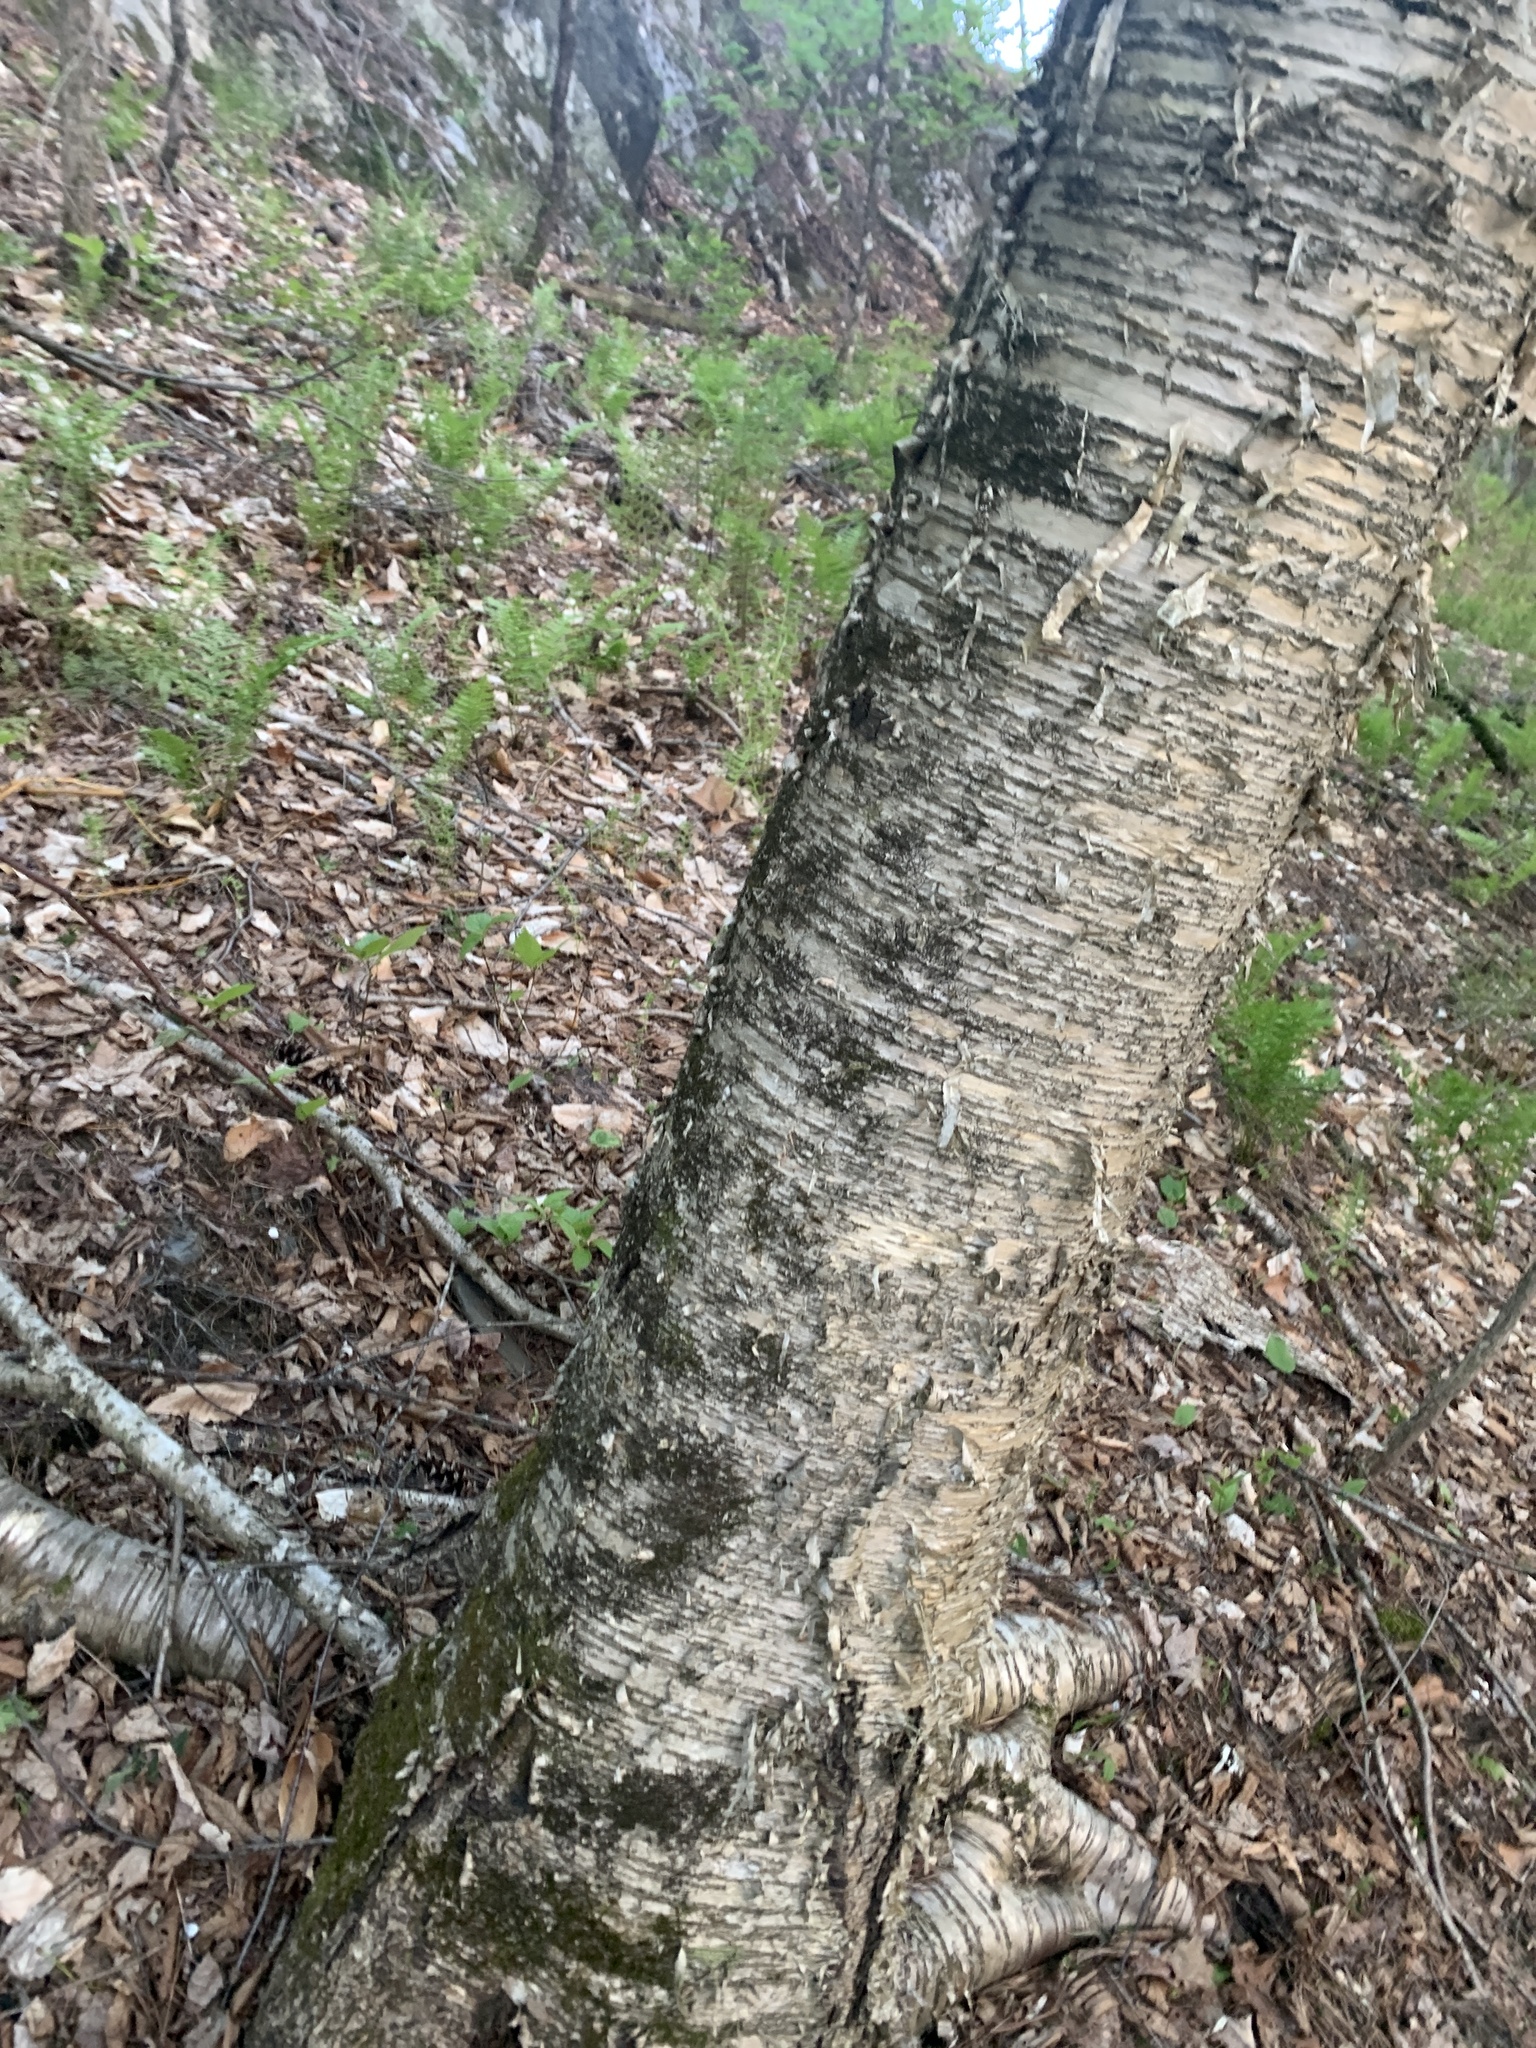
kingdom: Plantae
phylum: Tracheophyta
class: Magnoliopsida
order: Fagales
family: Betulaceae
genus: Betula
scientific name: Betula alleghaniensis
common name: Yellow birch
